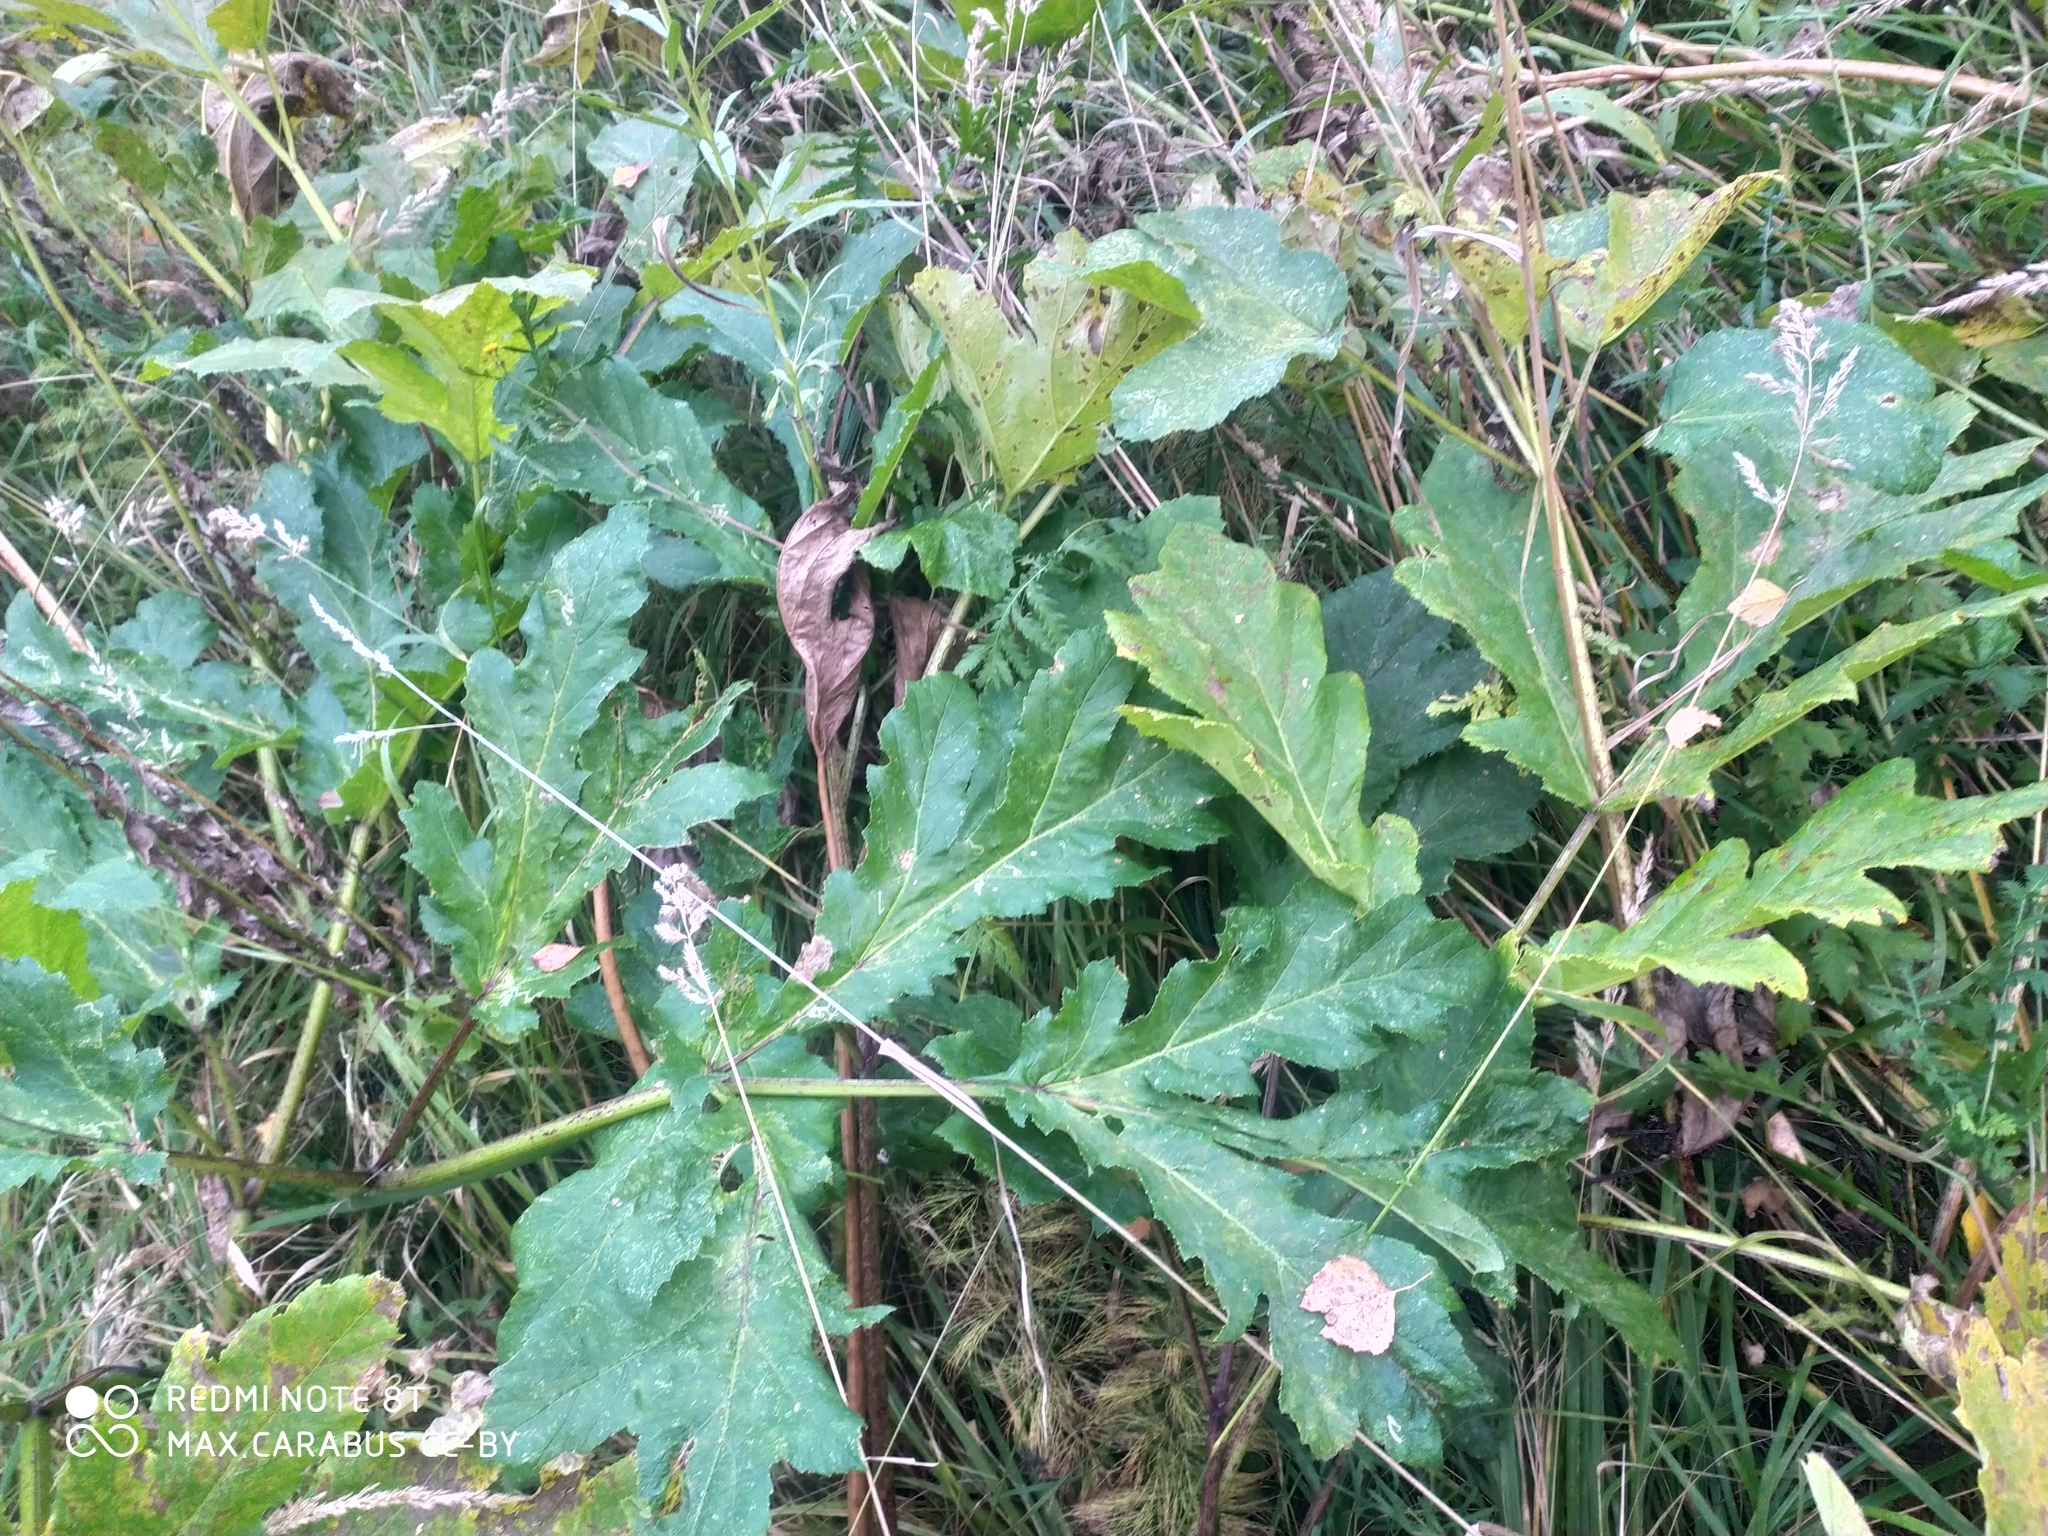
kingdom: Plantae
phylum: Tracheophyta
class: Magnoliopsida
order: Apiales
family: Apiaceae
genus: Heracleum
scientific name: Heracleum sosnowskyi
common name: Sosnowsky's hogweed
